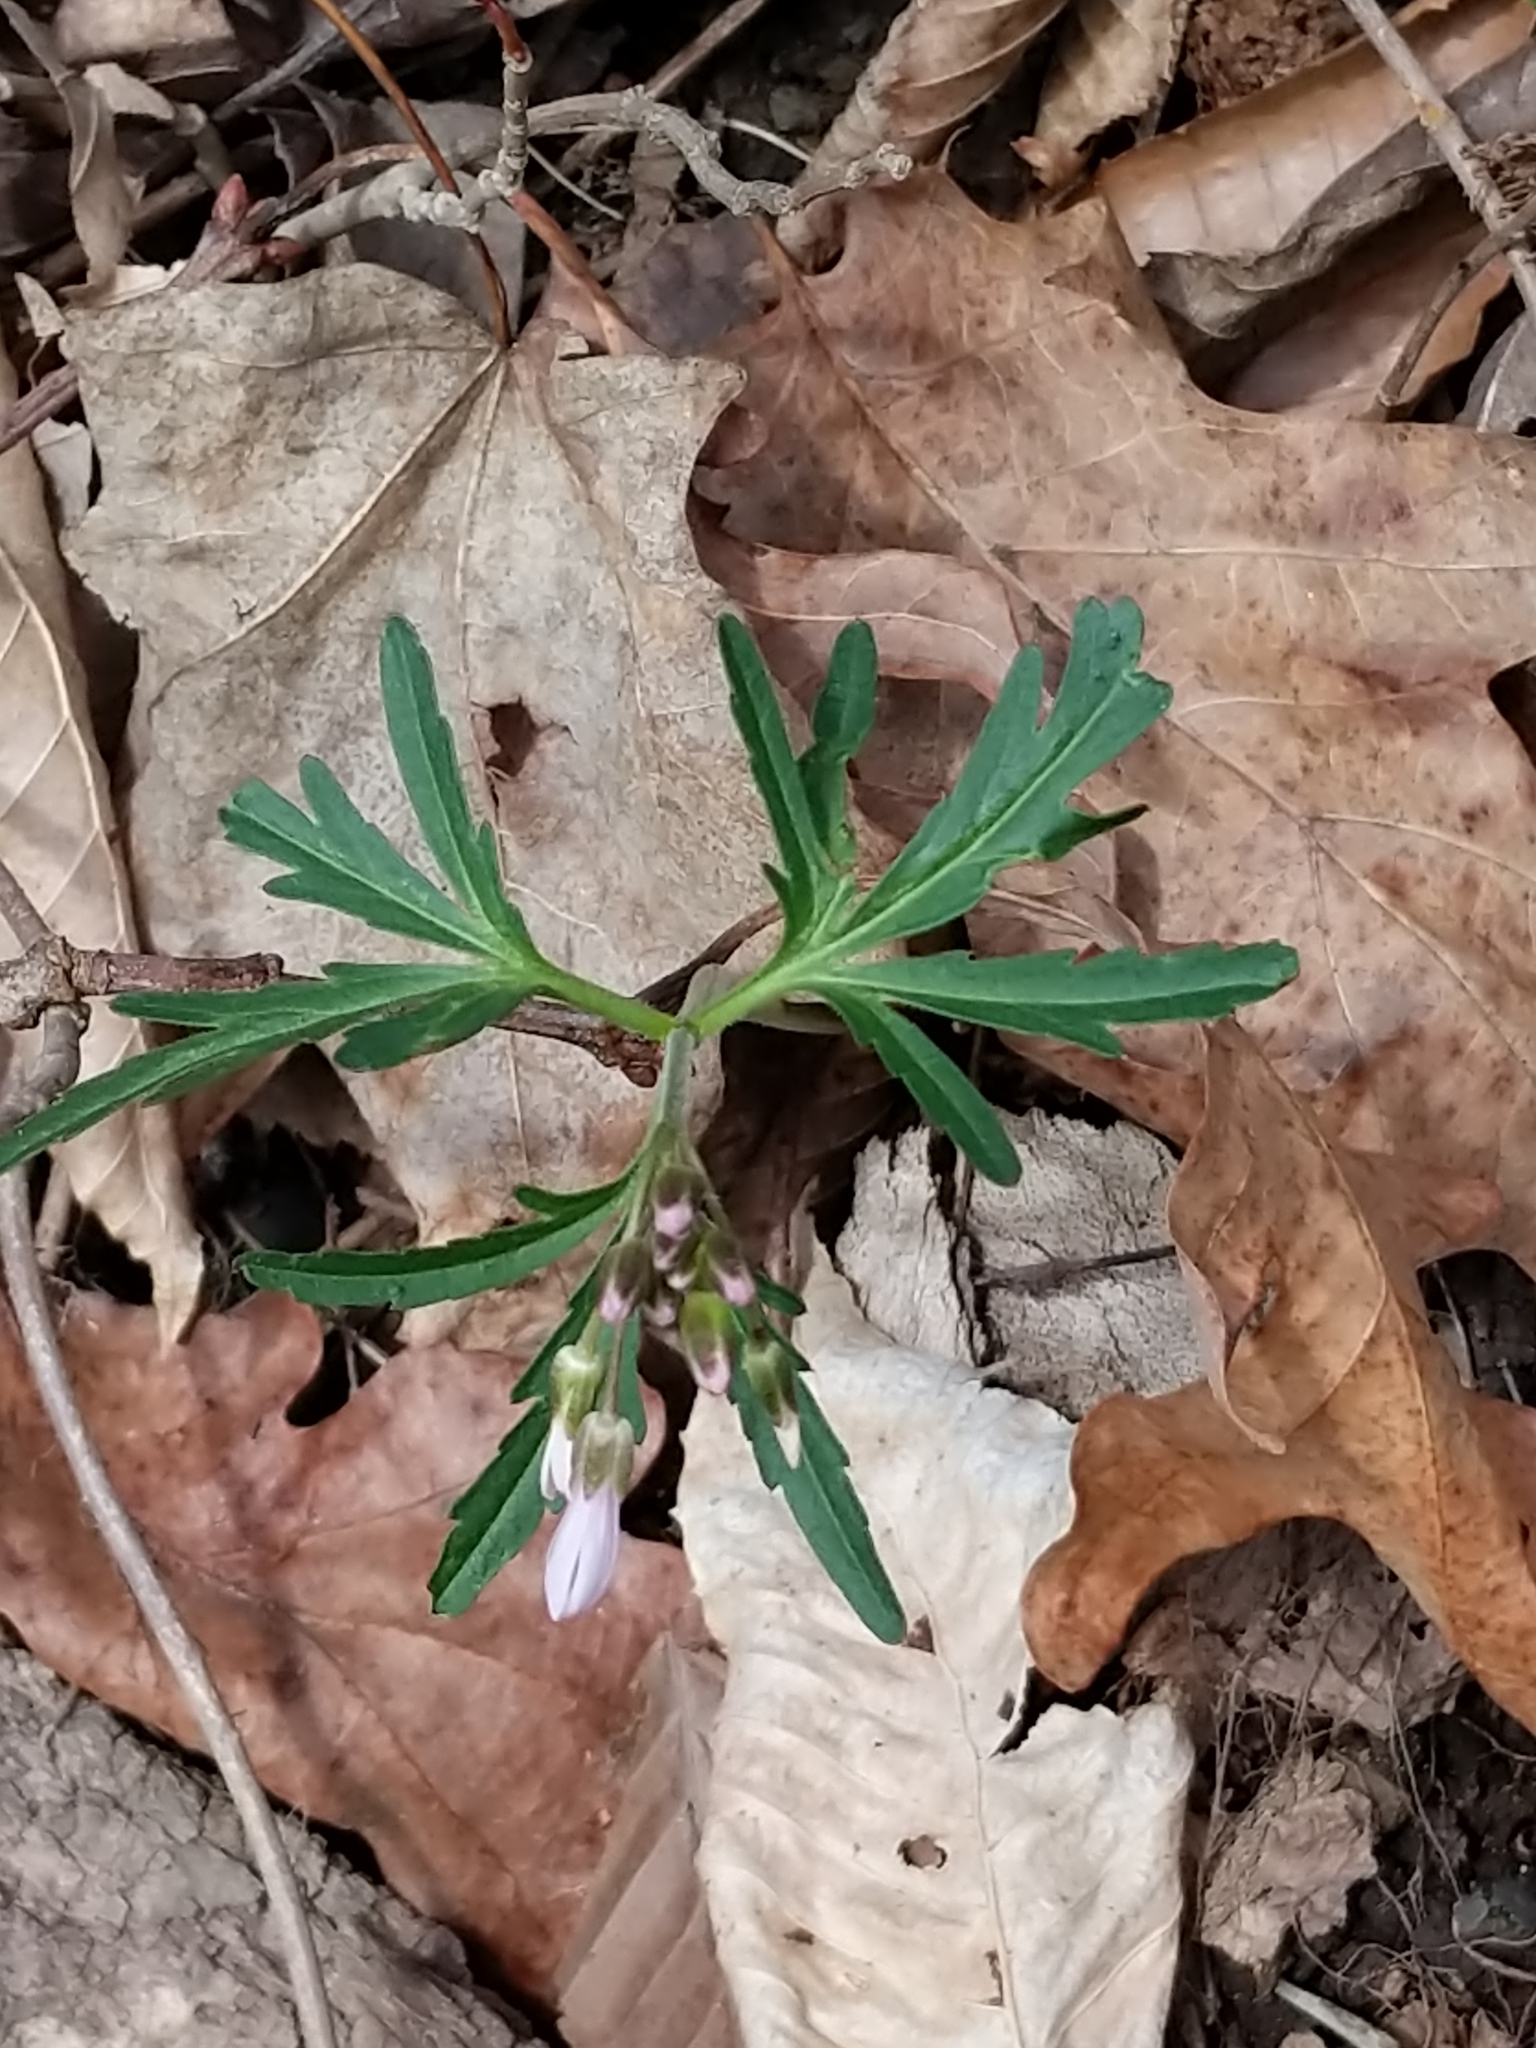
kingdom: Plantae
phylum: Tracheophyta
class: Magnoliopsida
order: Brassicales
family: Brassicaceae
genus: Cardamine
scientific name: Cardamine concatenata
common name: Cut-leaf toothcup
